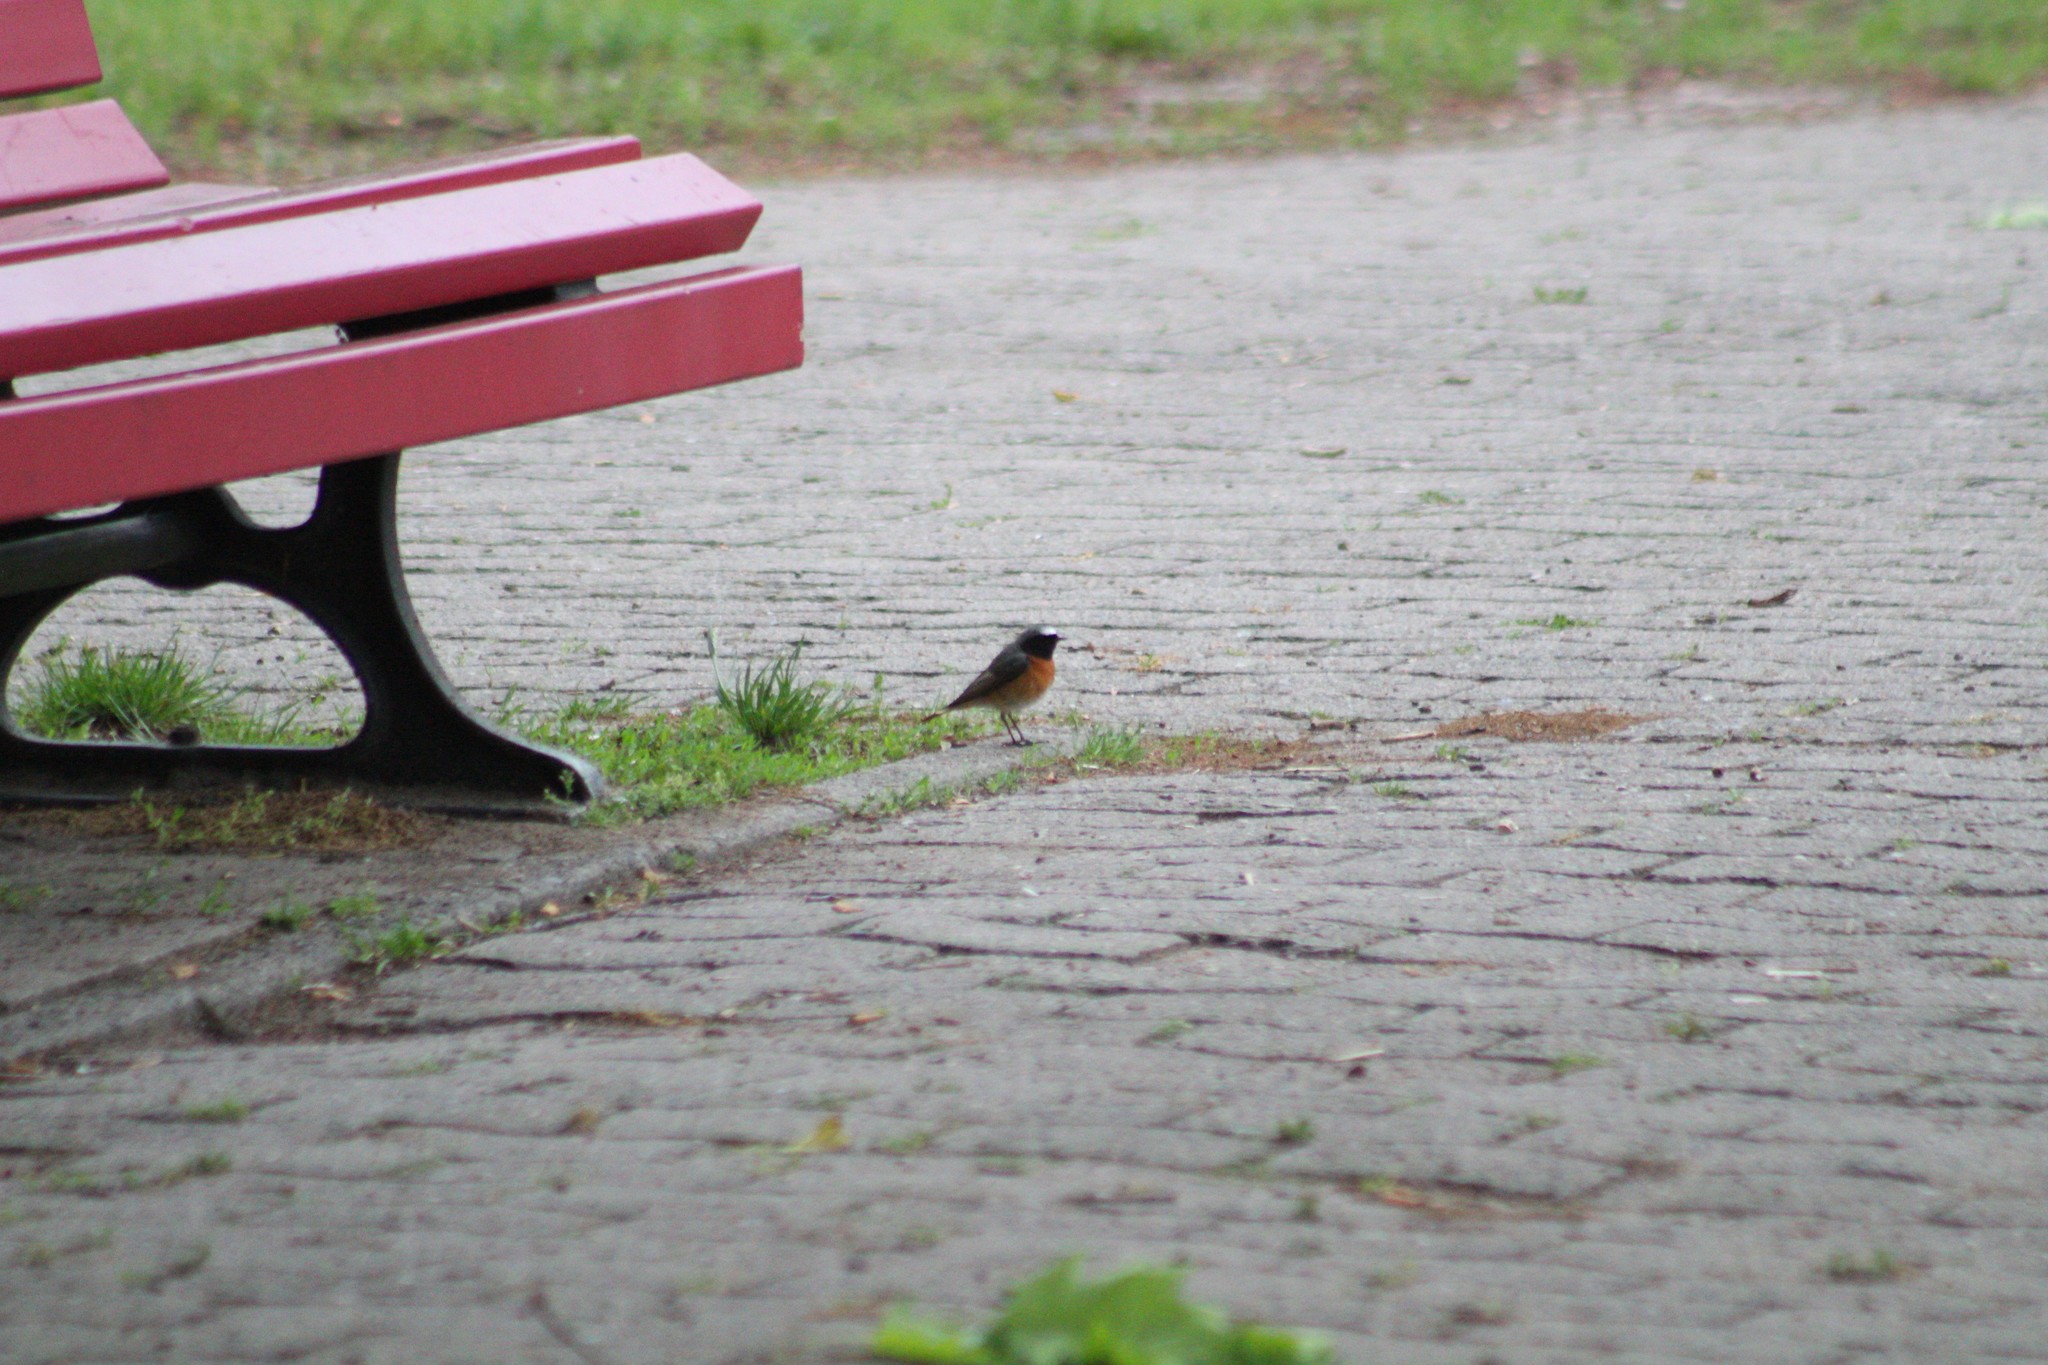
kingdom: Animalia
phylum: Chordata
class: Aves
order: Passeriformes
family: Muscicapidae
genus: Phoenicurus
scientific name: Phoenicurus phoenicurus
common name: Common redstart
